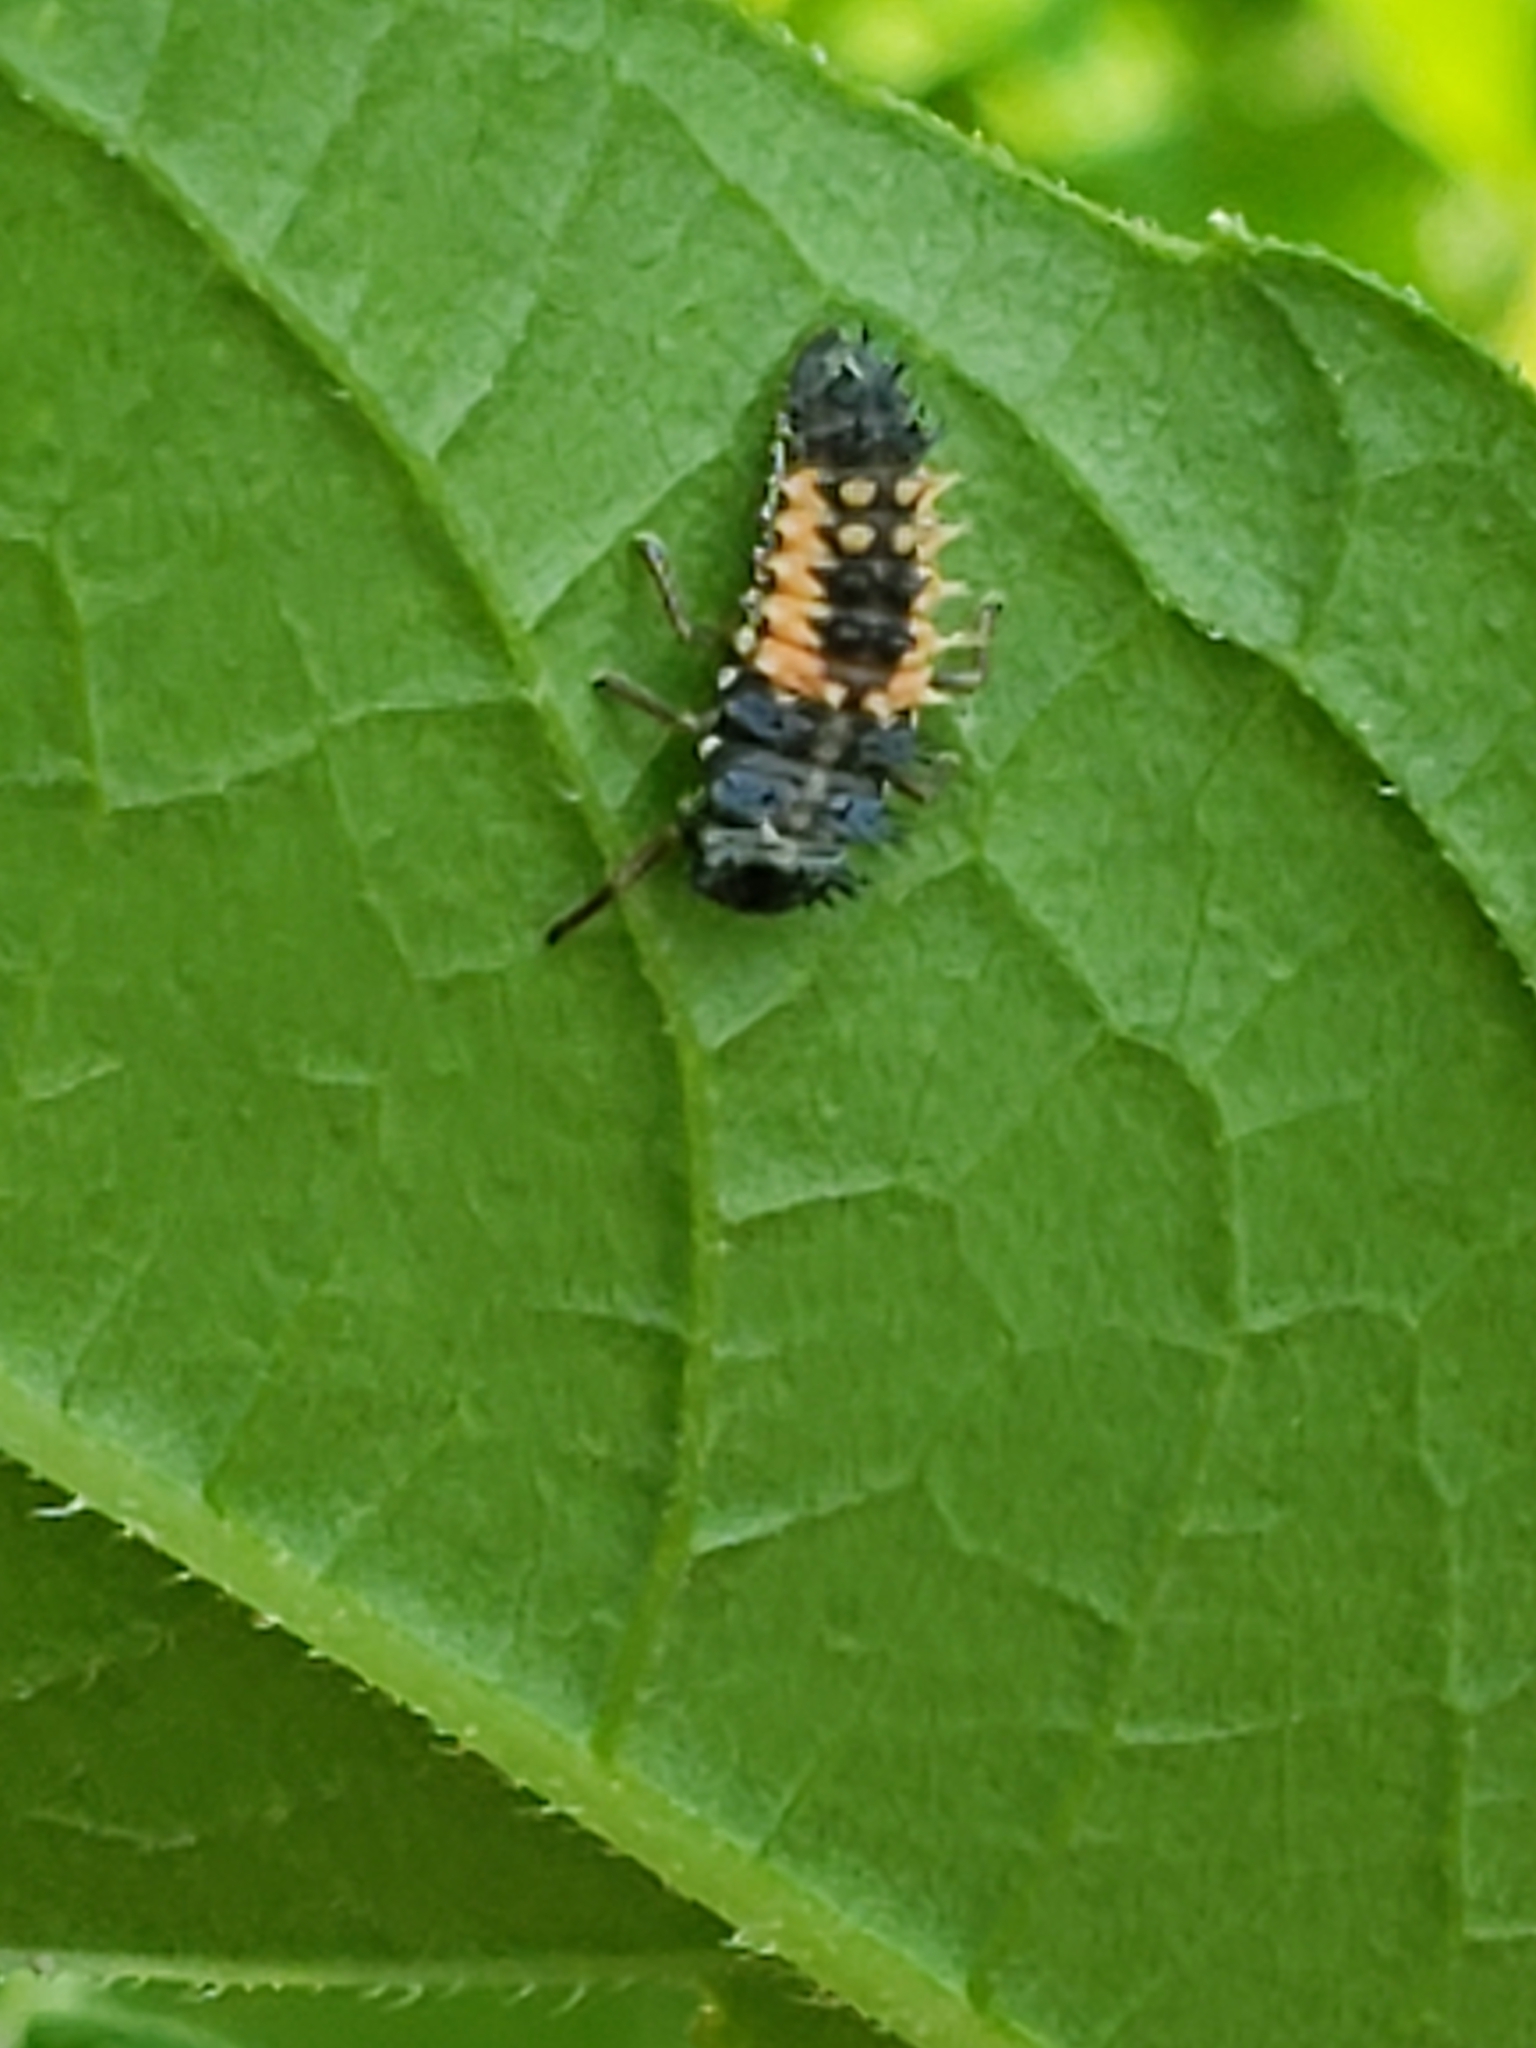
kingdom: Animalia
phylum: Arthropoda
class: Insecta
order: Coleoptera
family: Coccinellidae
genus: Harmonia
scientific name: Harmonia axyridis
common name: Harlequin ladybird
